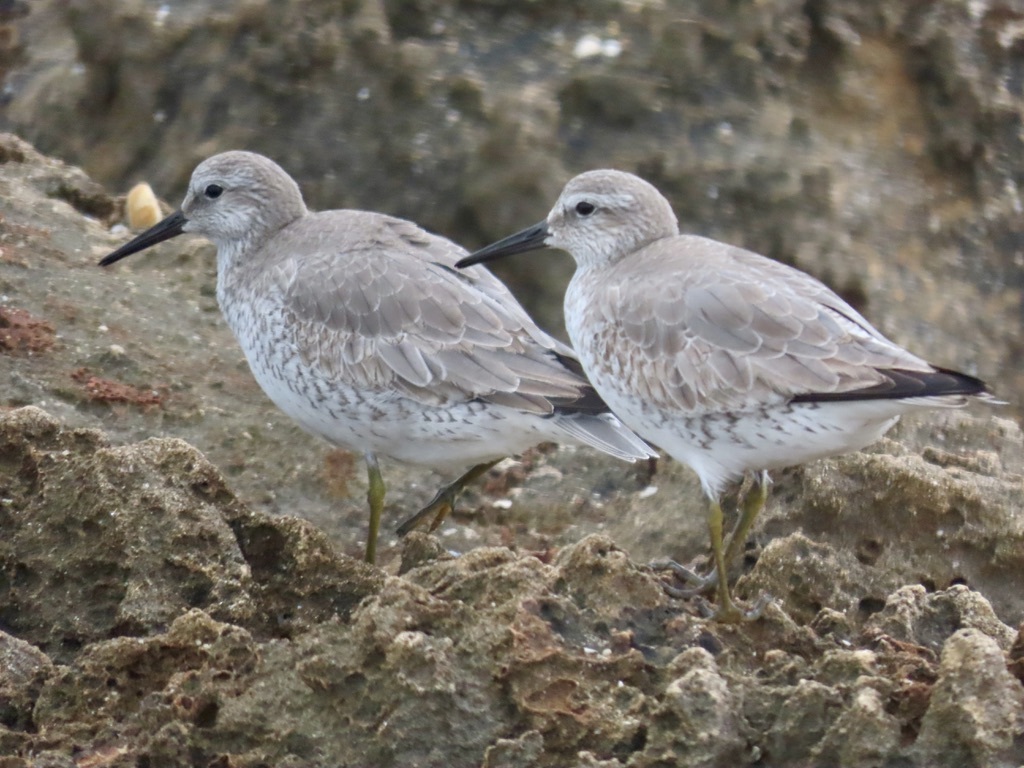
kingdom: Animalia
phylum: Chordata
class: Aves
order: Charadriiformes
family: Scolopacidae
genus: Calidris
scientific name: Calidris canutus
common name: Red knot
